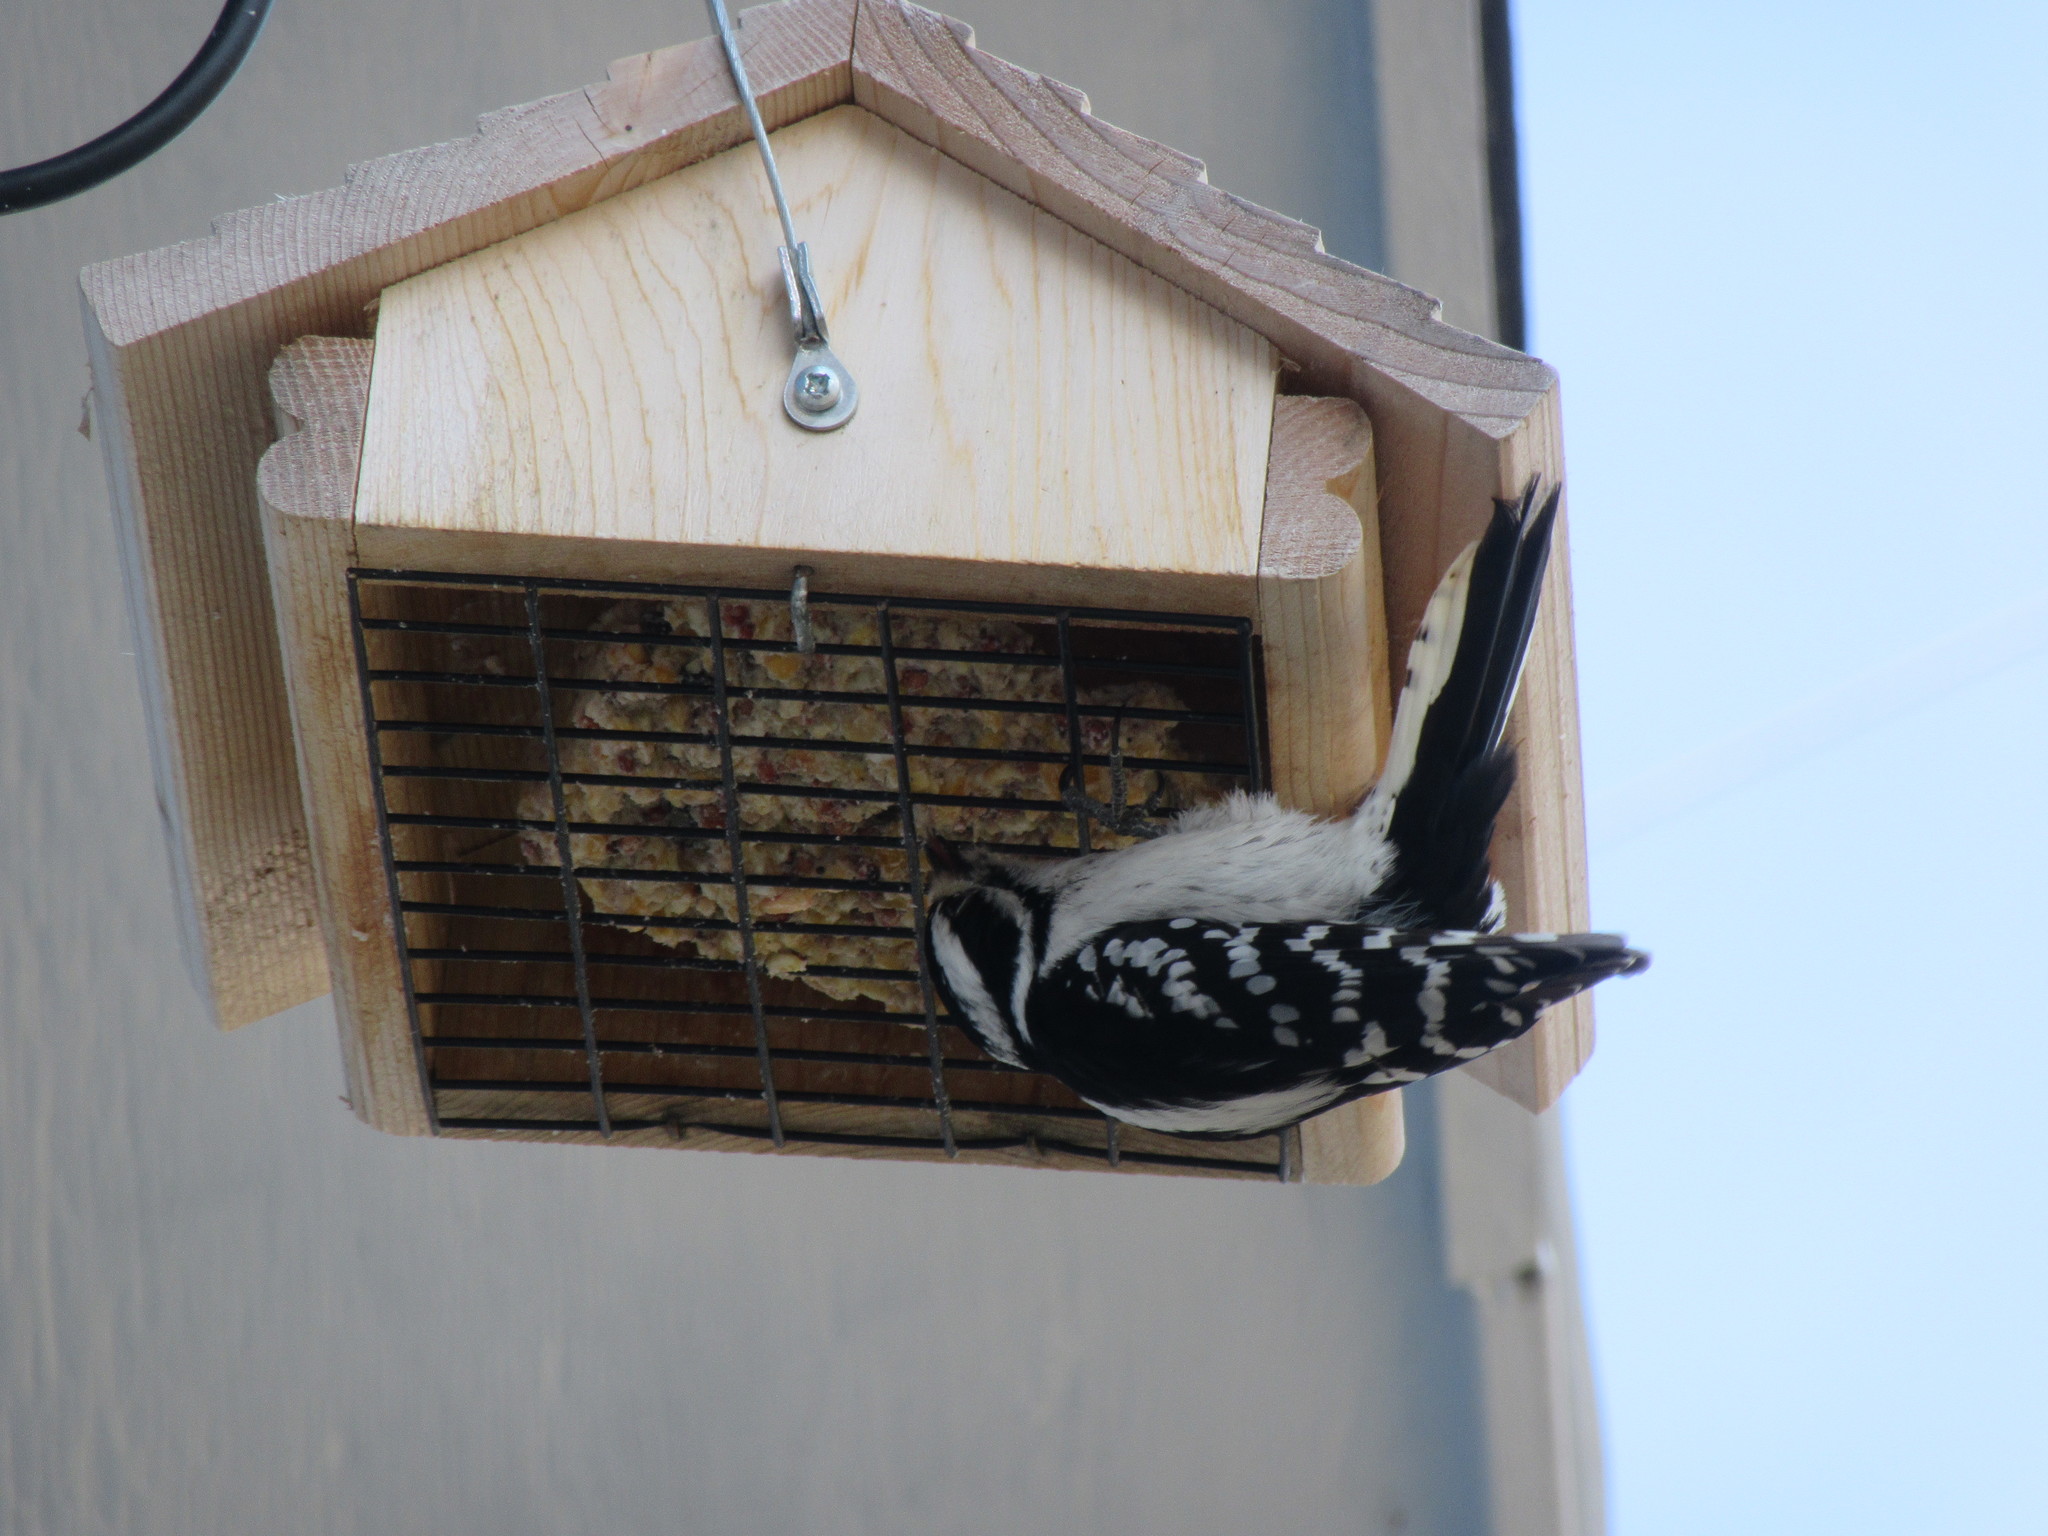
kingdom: Animalia
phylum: Chordata
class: Aves
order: Piciformes
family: Picidae
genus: Dryobates
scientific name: Dryobates pubescens
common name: Downy woodpecker
